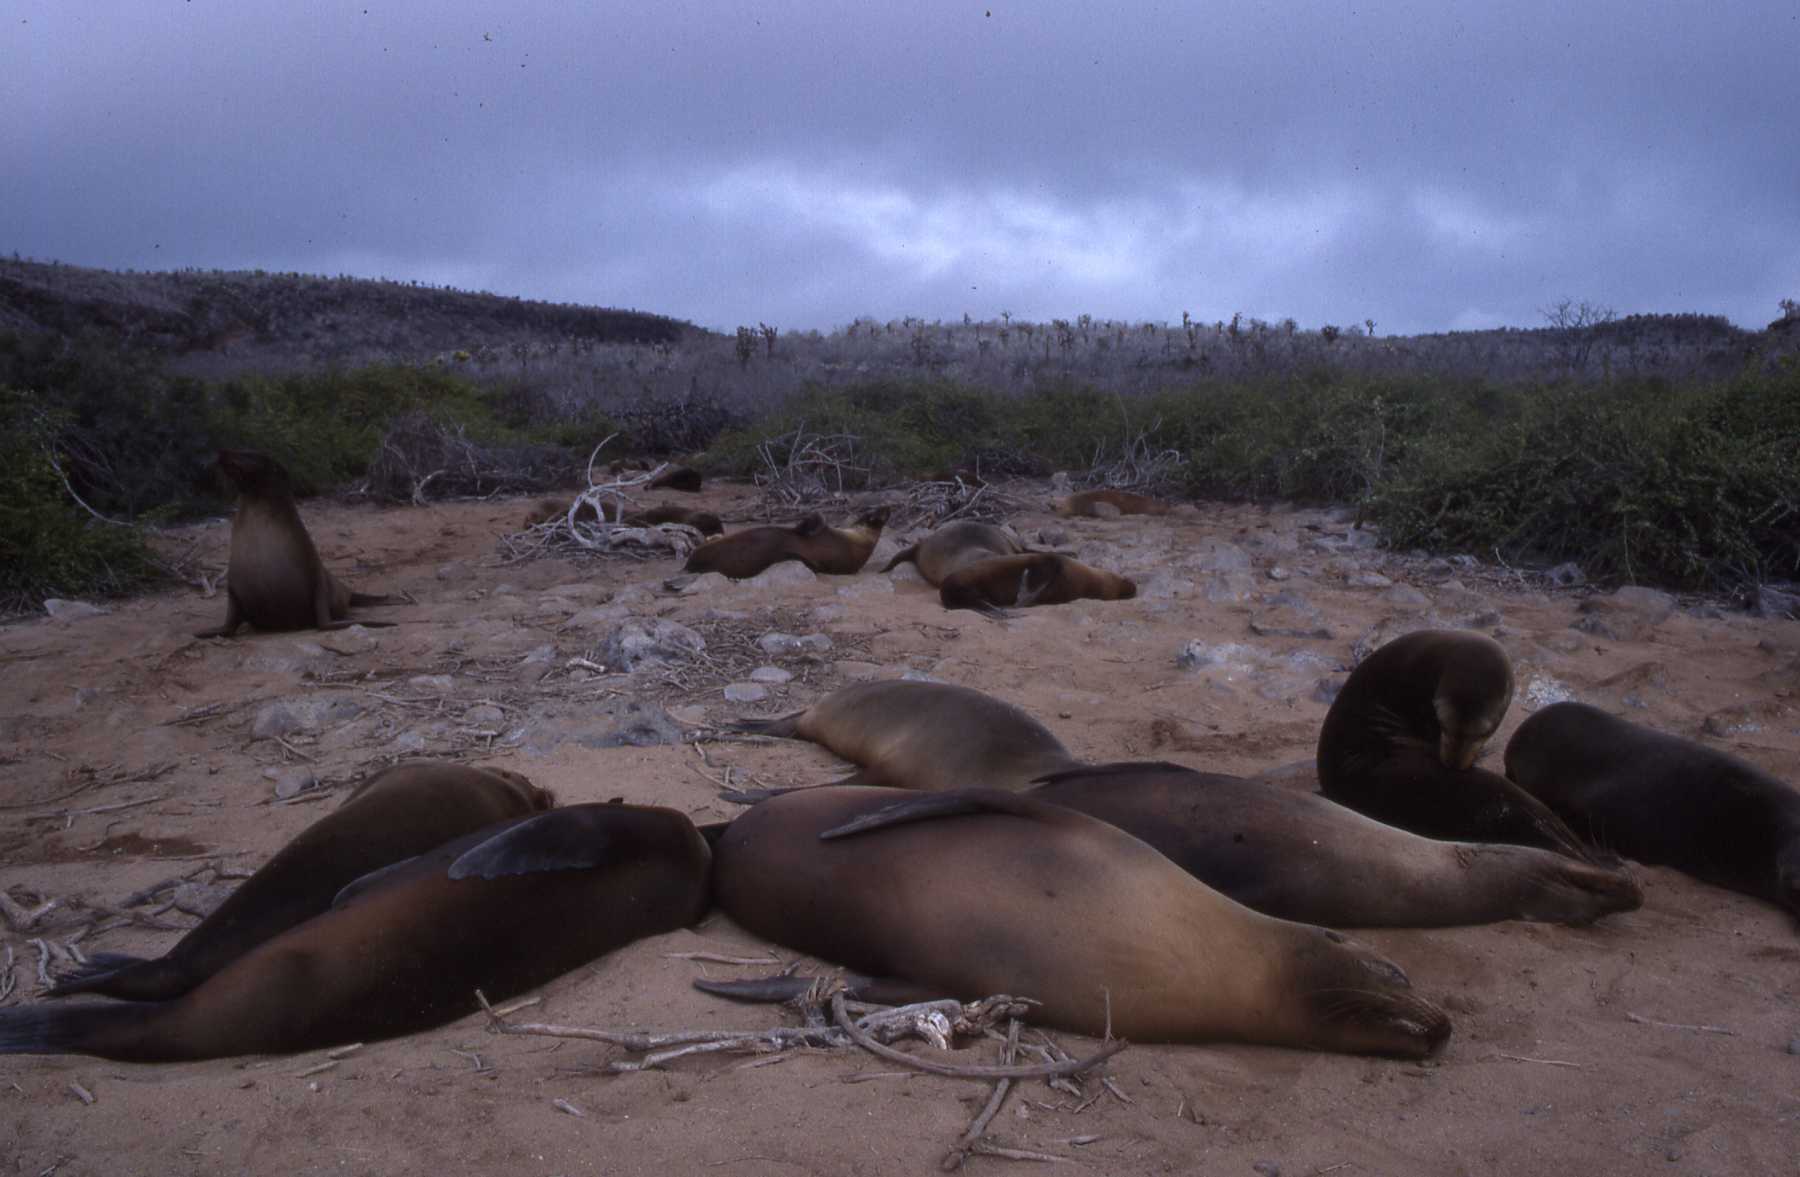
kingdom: Animalia
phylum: Chordata
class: Mammalia
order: Carnivora
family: Otariidae
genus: Zalophus
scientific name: Zalophus wollebaeki
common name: Galapagos sea lion
